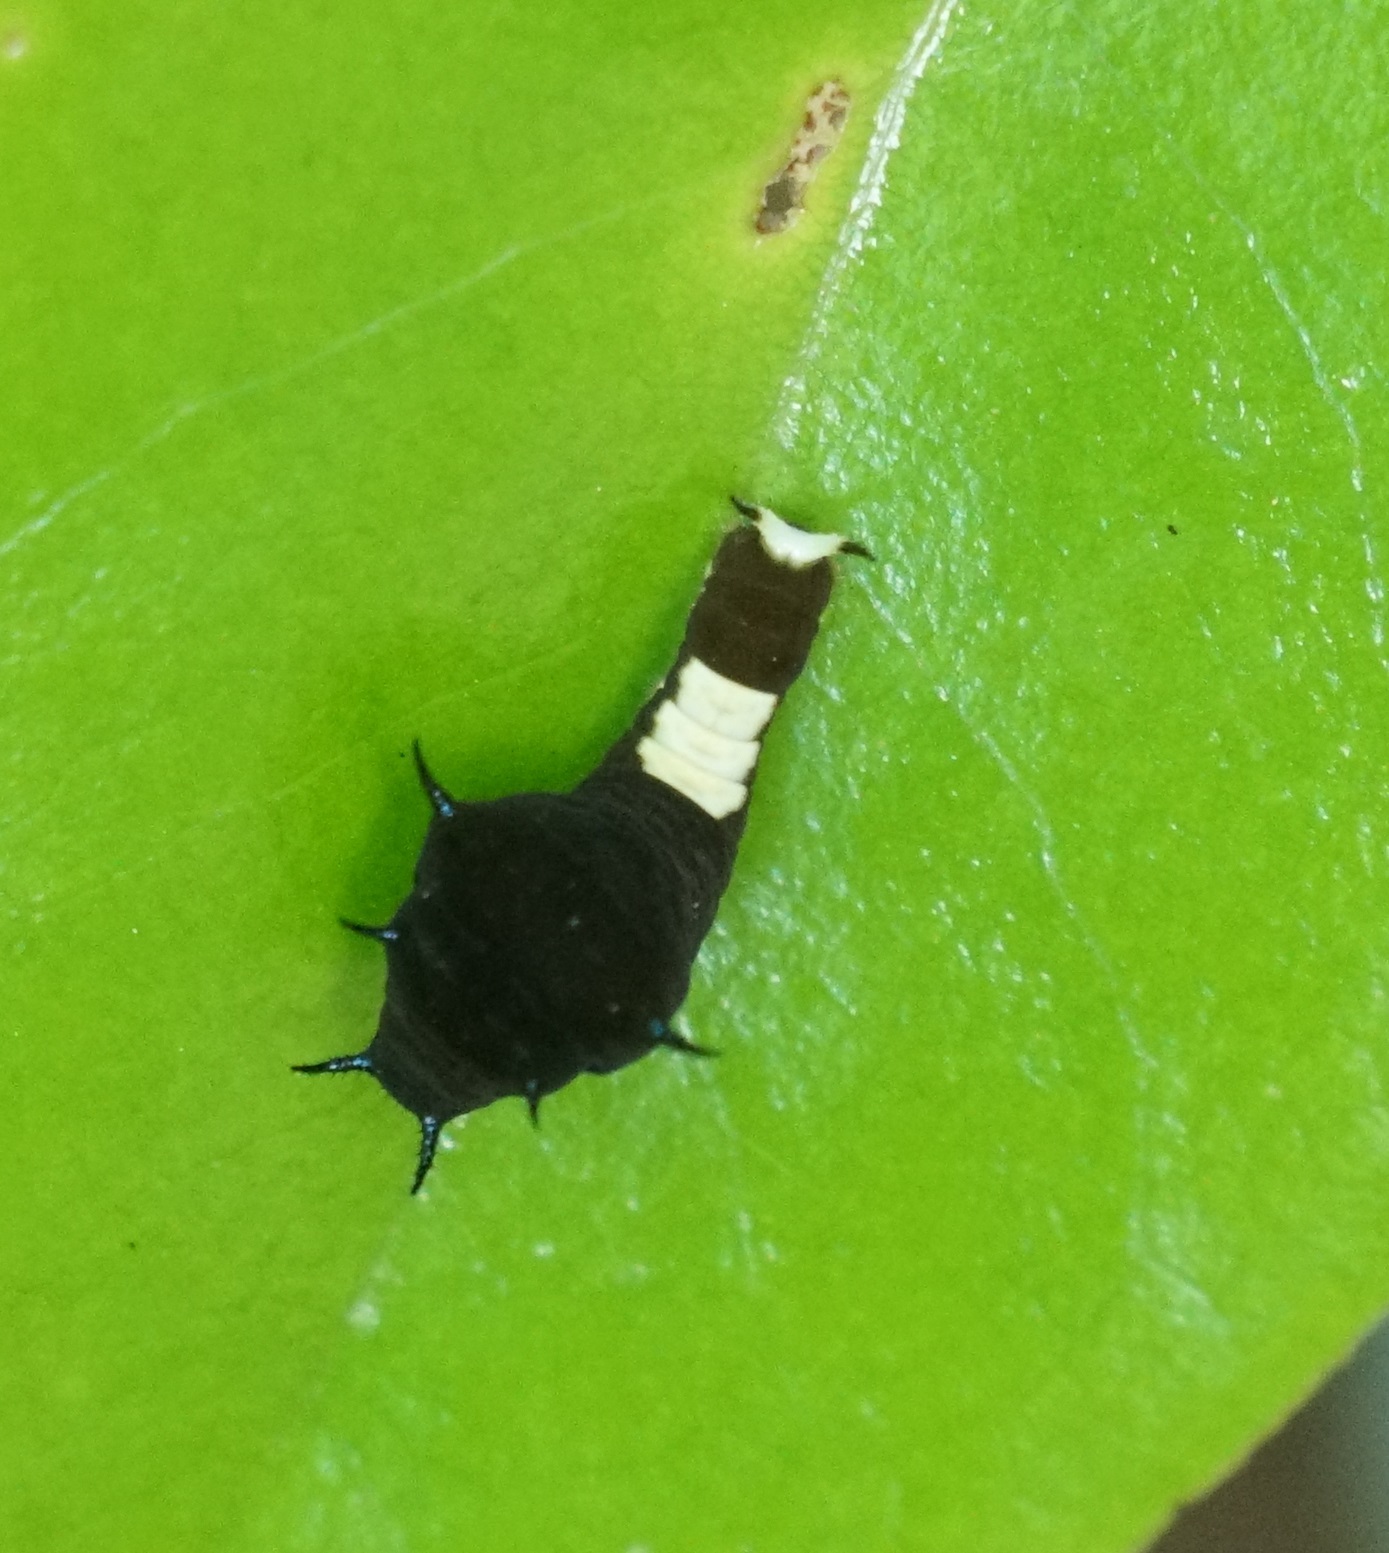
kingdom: Animalia
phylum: Arthropoda
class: Insecta
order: Lepidoptera
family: Papilionidae
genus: Graphium
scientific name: Graphium agamemnon
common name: Tailed jay
